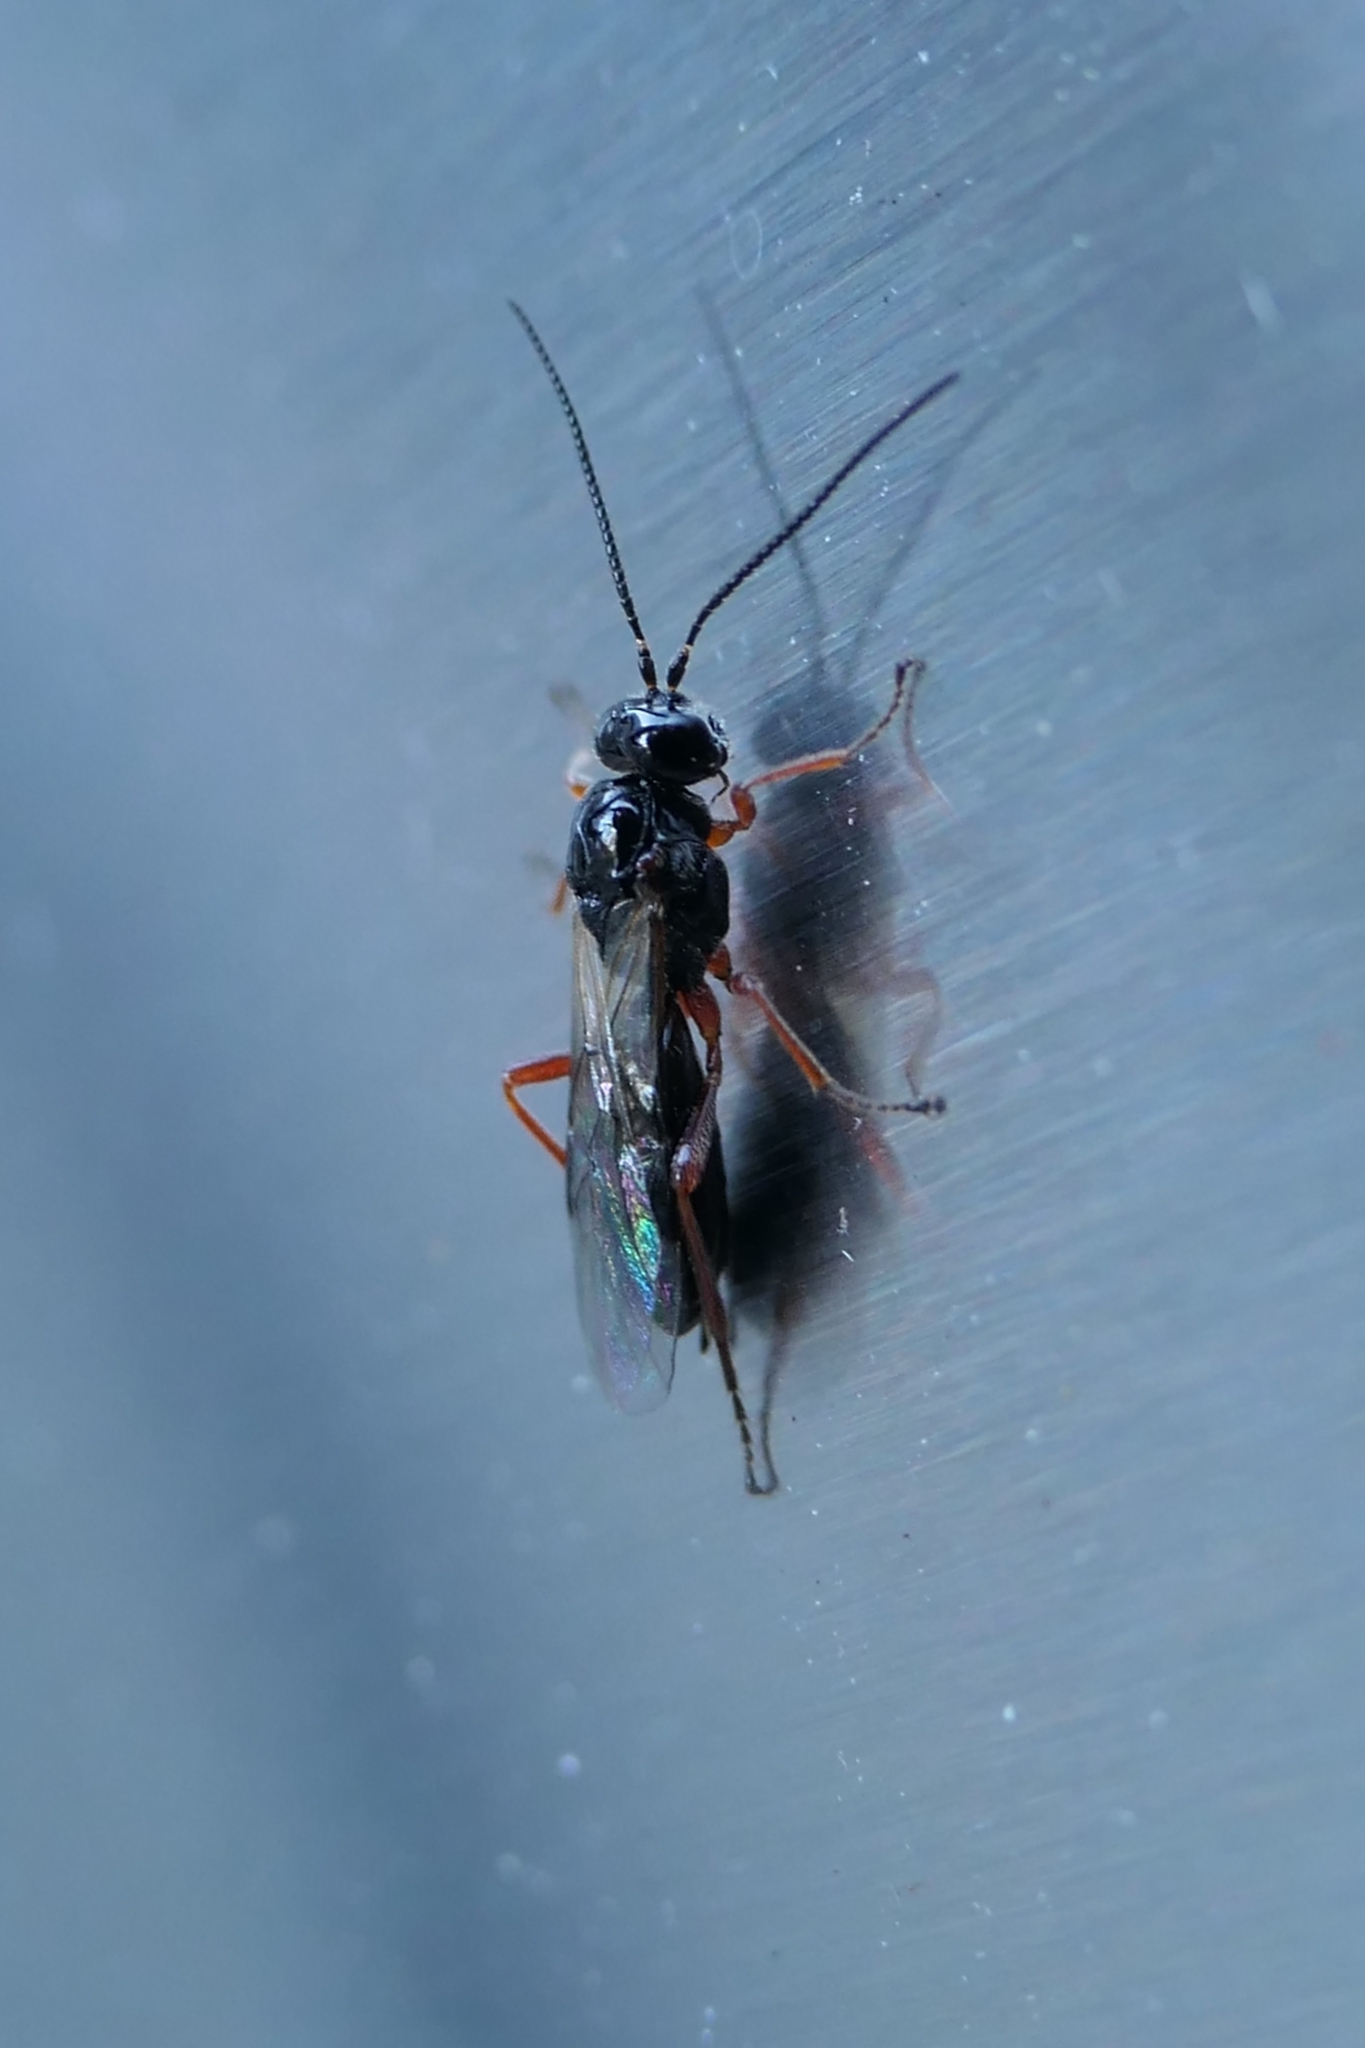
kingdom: Animalia
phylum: Arthropoda
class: Insecta
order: Hymenoptera
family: Braconidae
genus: Alysia
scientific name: Alysia manducator
